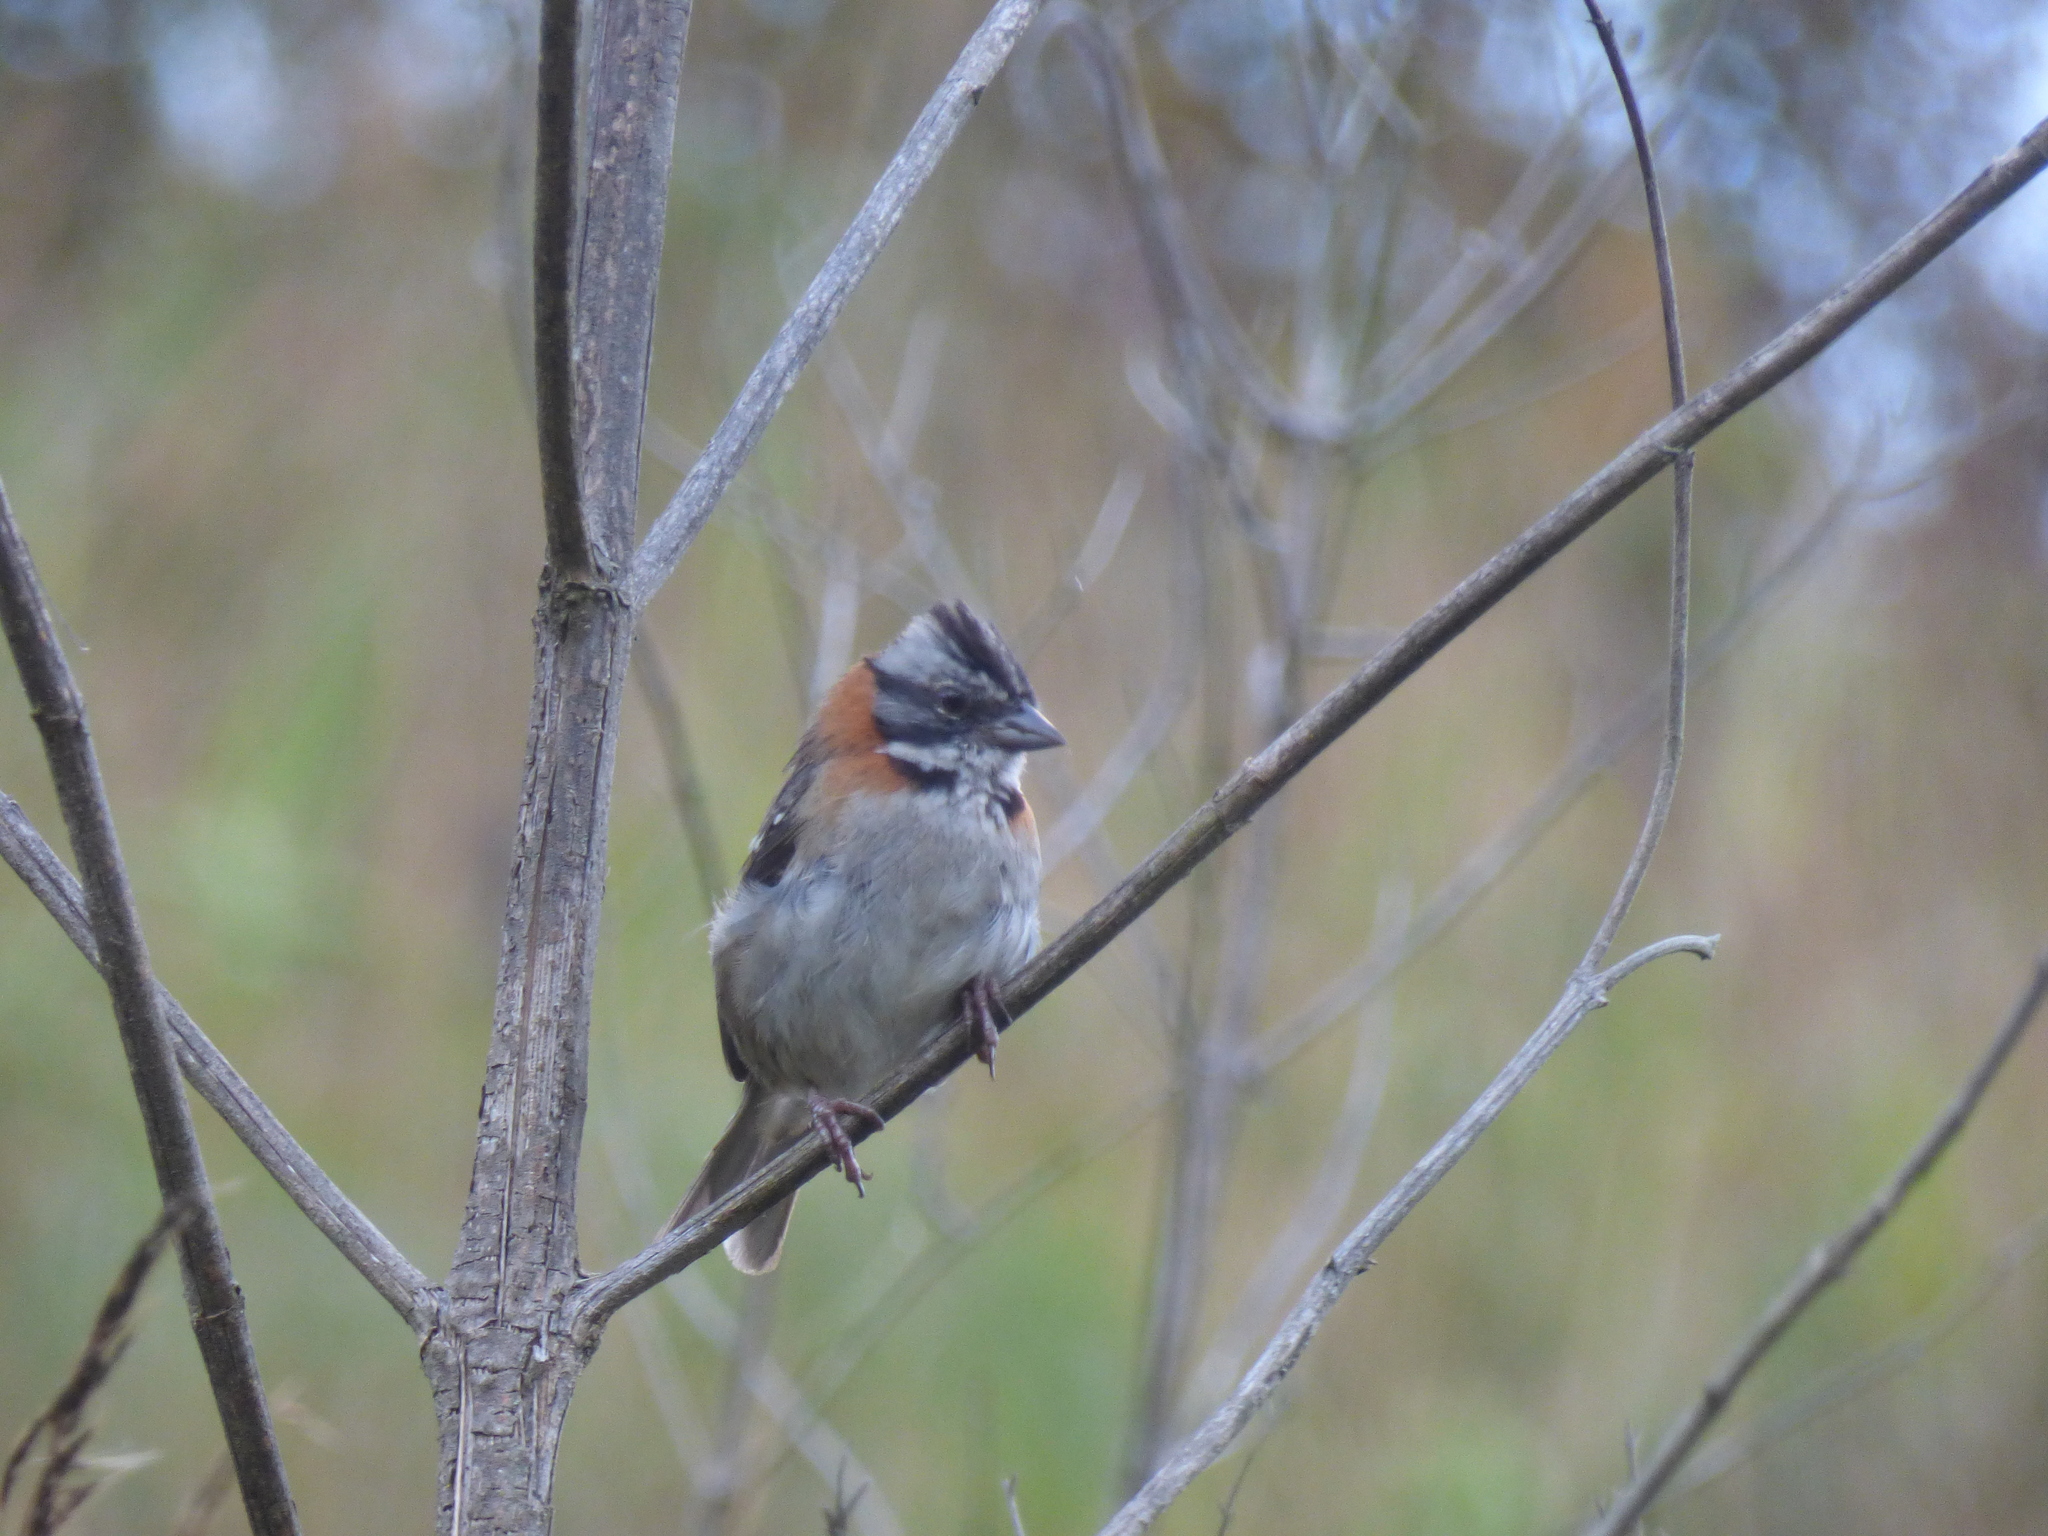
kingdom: Animalia
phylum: Chordata
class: Aves
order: Passeriformes
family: Passerellidae
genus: Zonotrichia
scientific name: Zonotrichia capensis
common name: Rufous-collared sparrow
